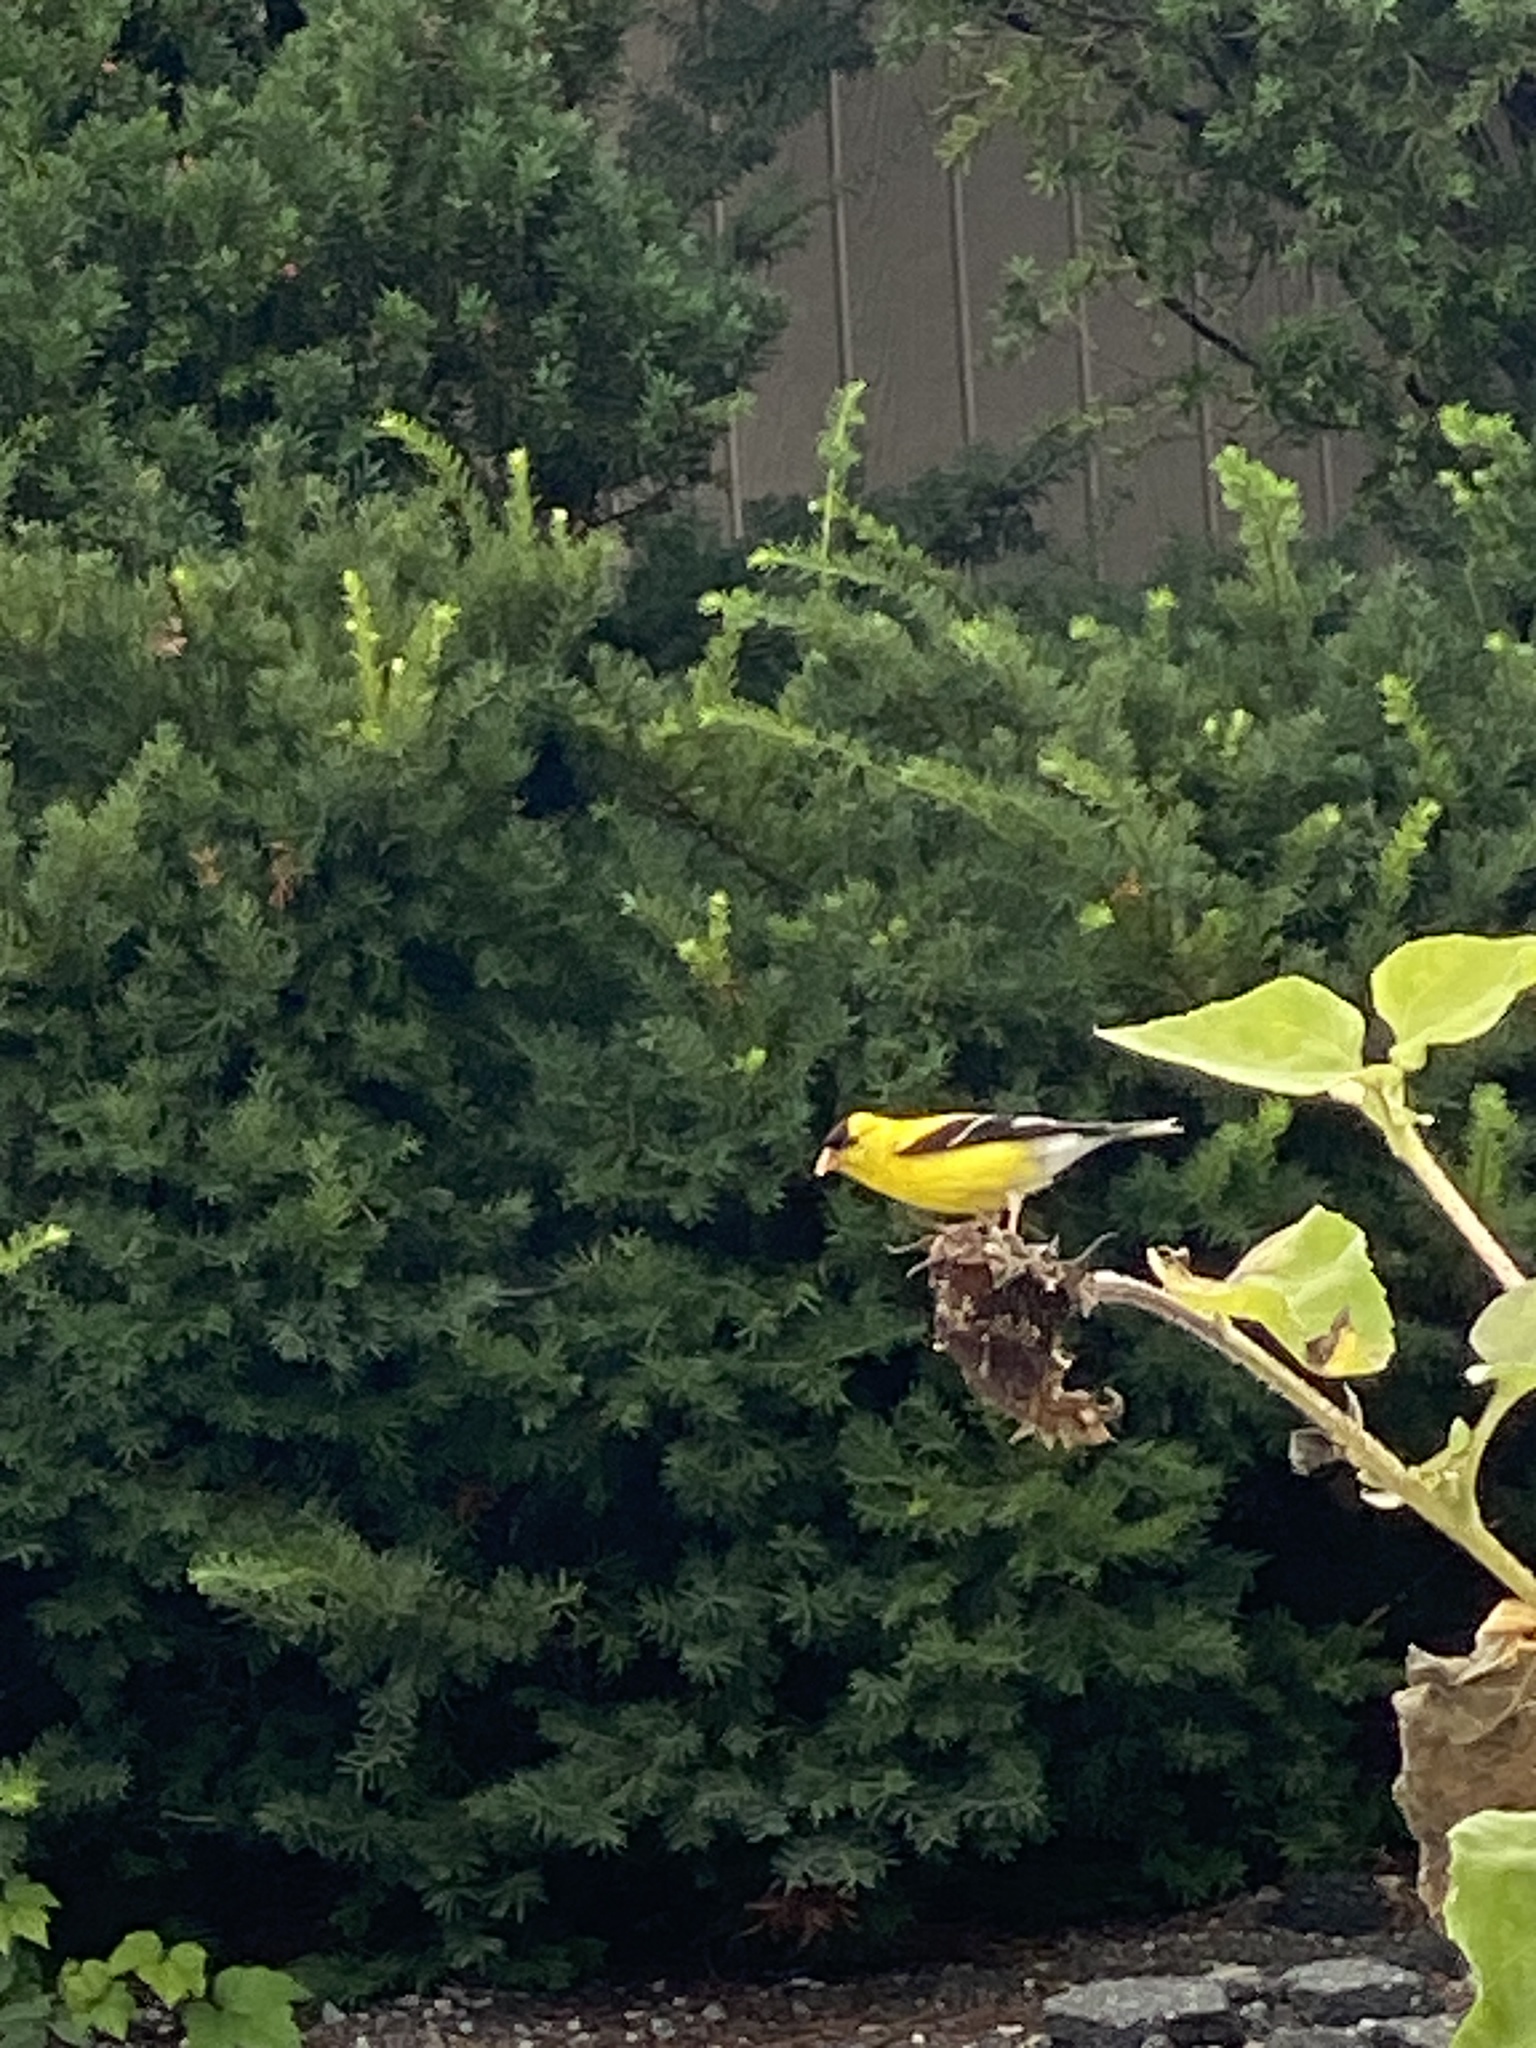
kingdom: Animalia
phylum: Chordata
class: Aves
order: Passeriformes
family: Fringillidae
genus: Spinus
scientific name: Spinus tristis
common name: American goldfinch
